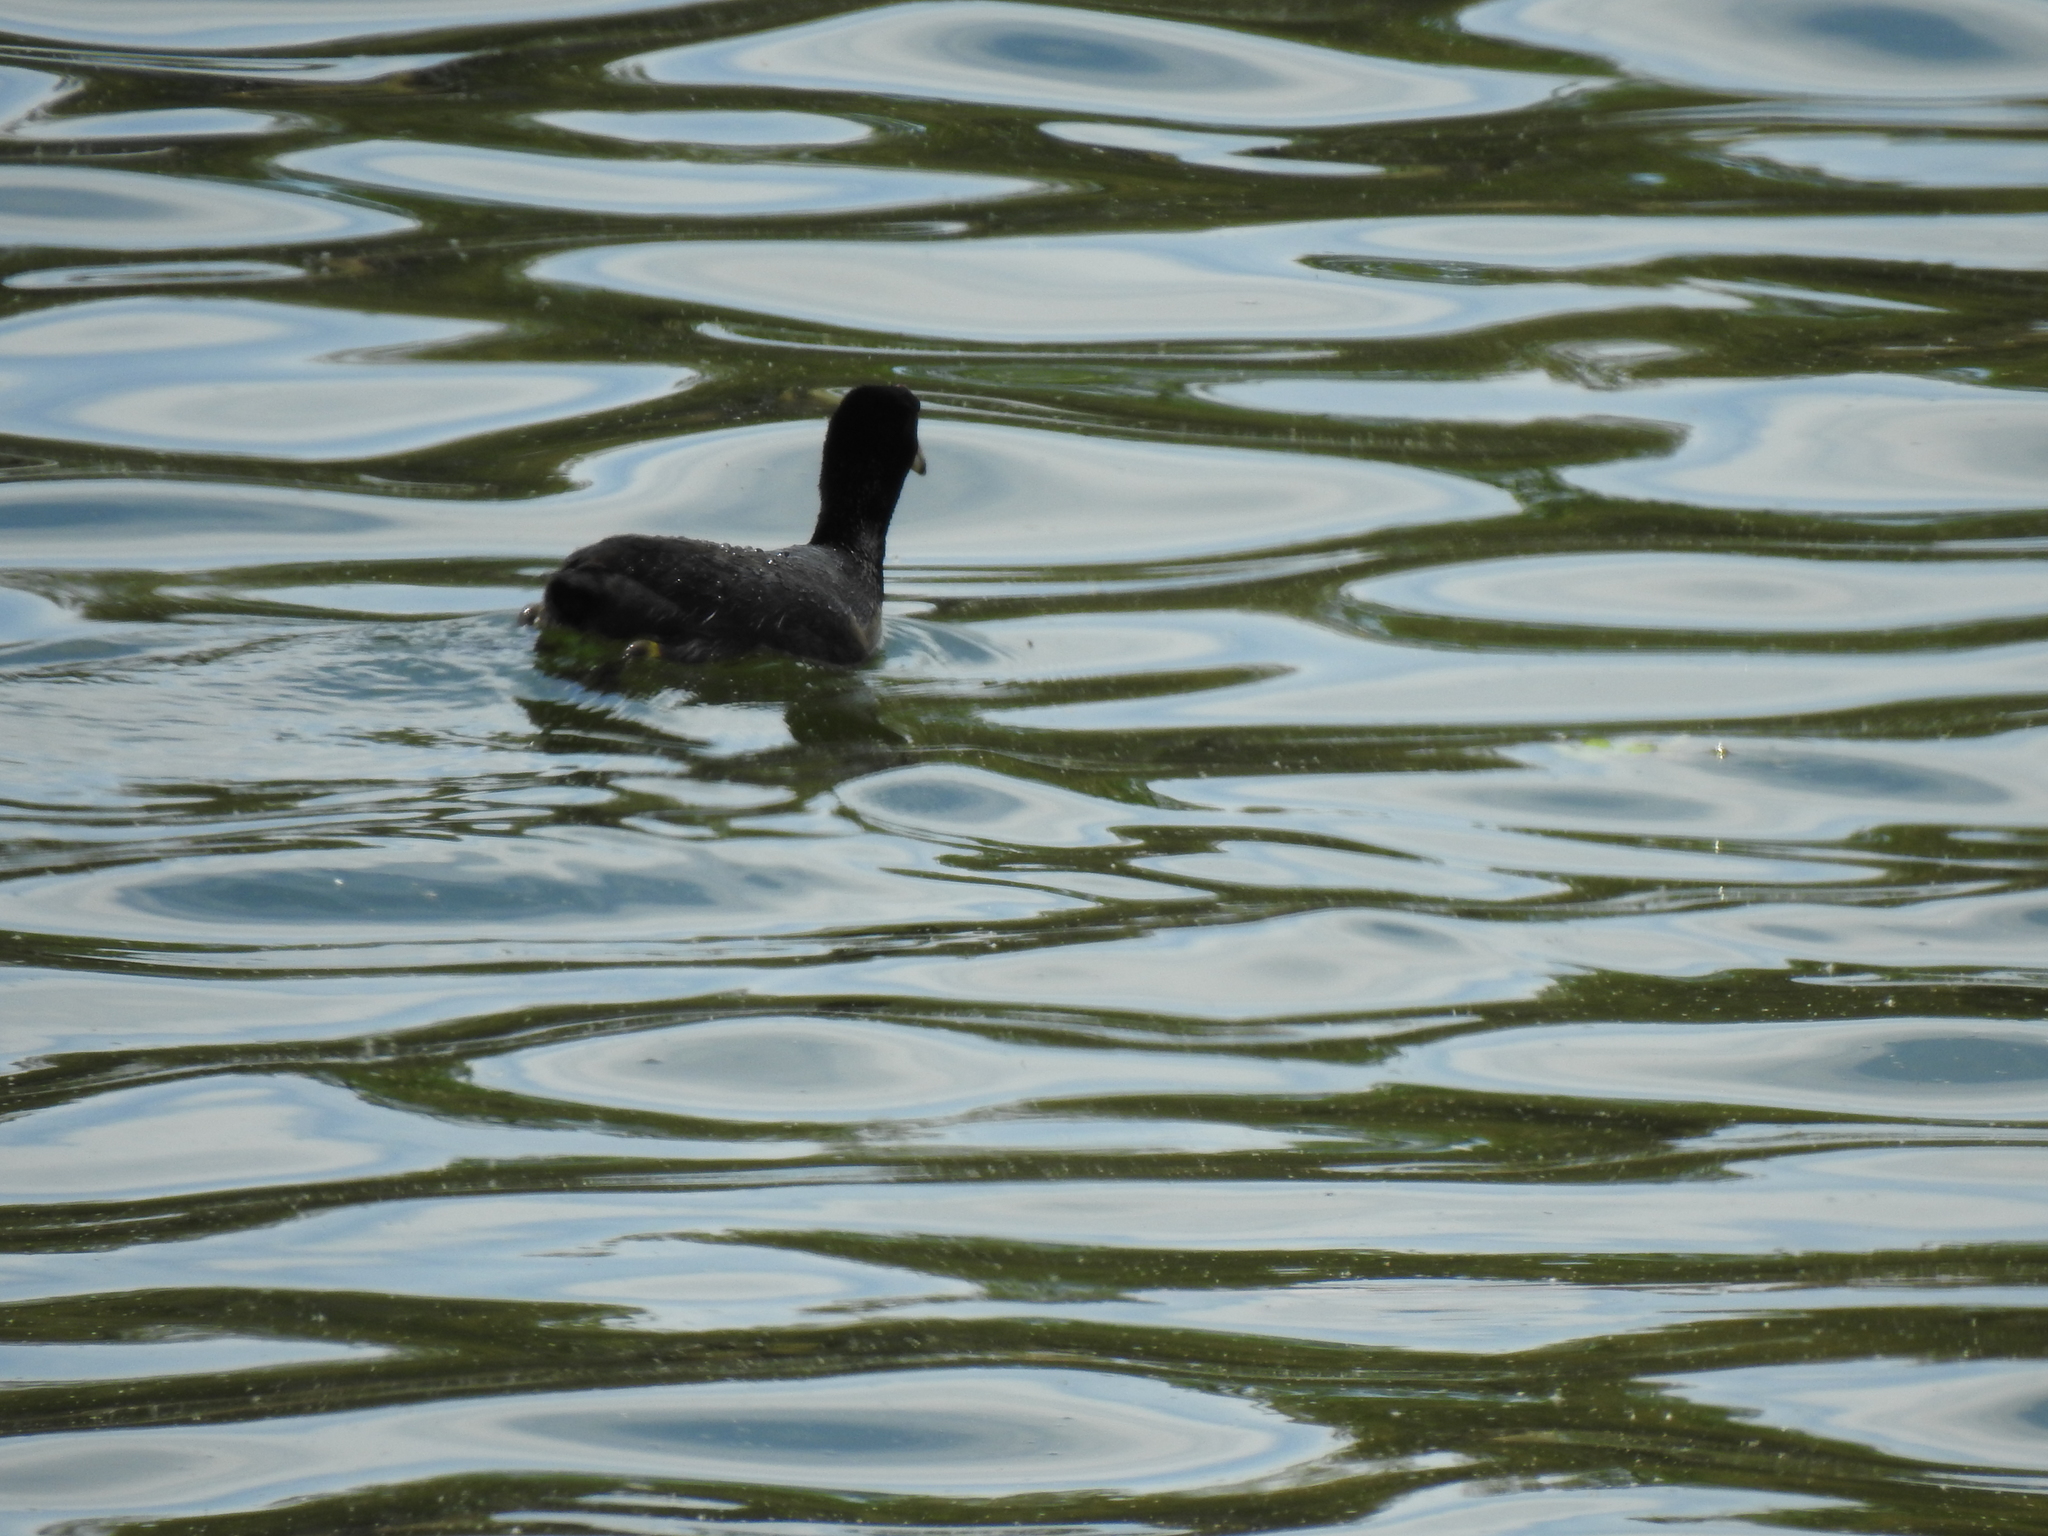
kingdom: Animalia
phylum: Chordata
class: Aves
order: Gruiformes
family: Rallidae
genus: Fulica
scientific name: Fulica americana
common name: American coot
